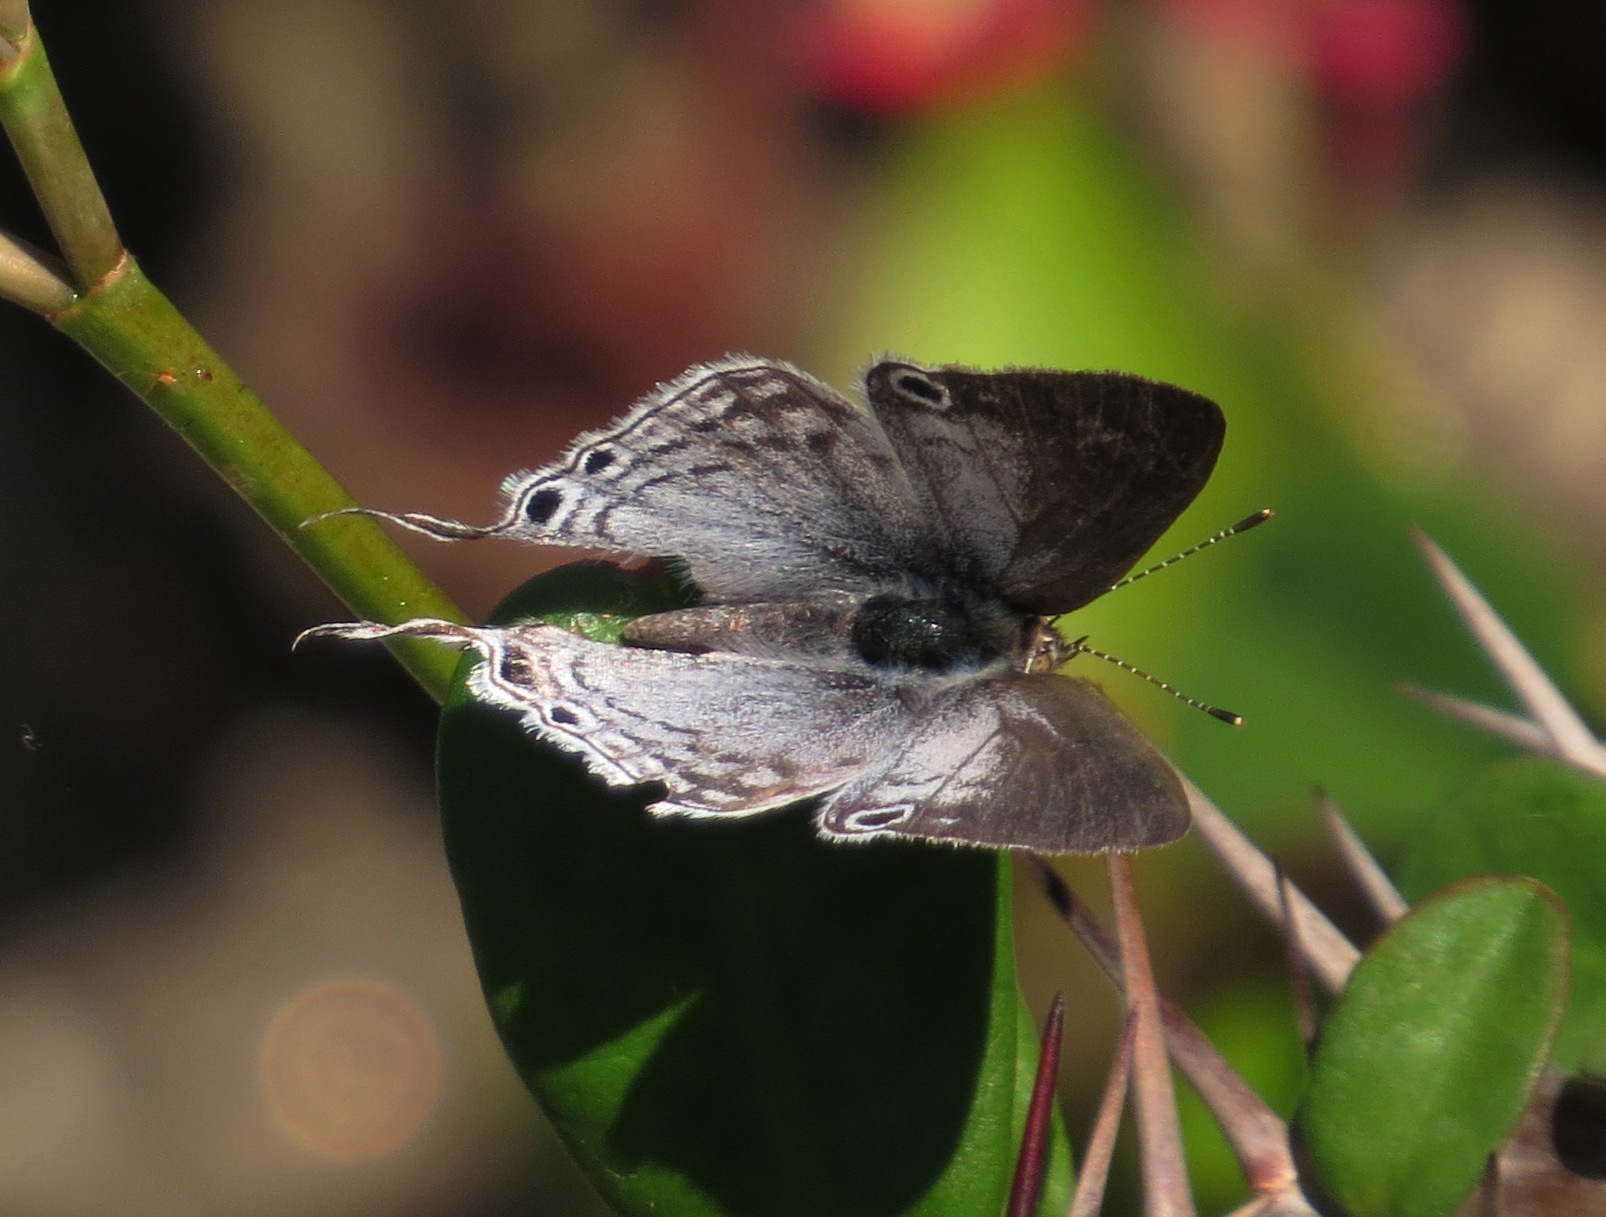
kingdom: Animalia
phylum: Arthropoda
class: Insecta
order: Lepidoptera
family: Lycaenidae
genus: Leptomyrina
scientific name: Leptomyrina phidias
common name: Madagascar black-eye
